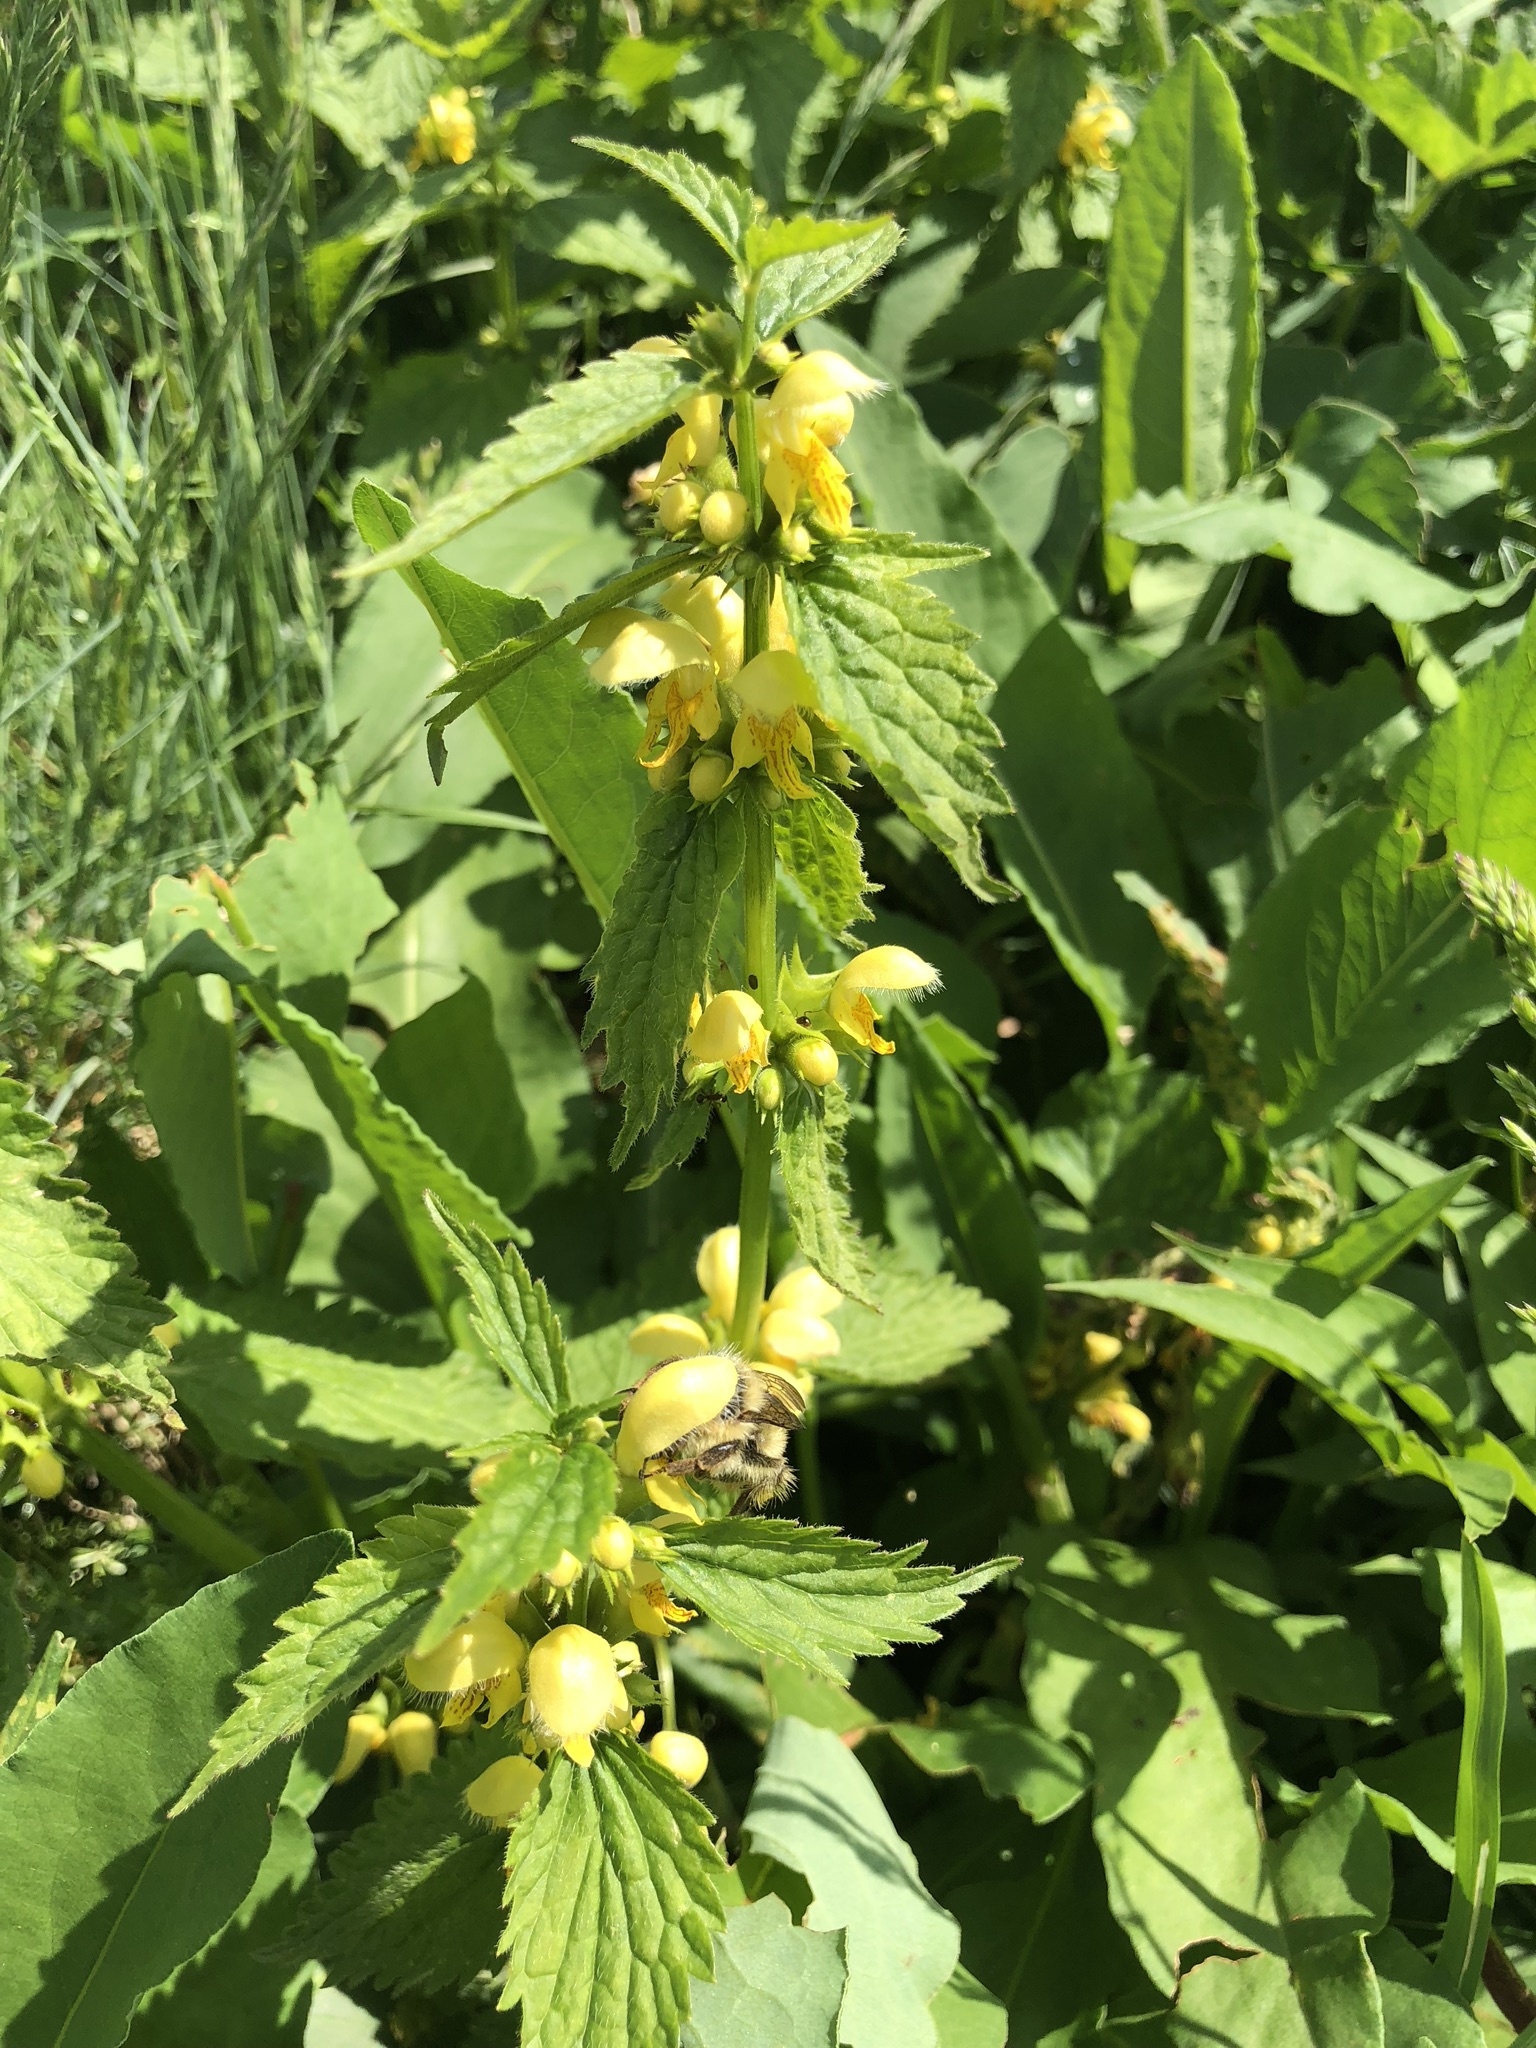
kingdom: Plantae
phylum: Tracheophyta
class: Magnoliopsida
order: Lamiales
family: Lamiaceae
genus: Lamium
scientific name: Lamium galeobdolon
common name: Yellow archangel
